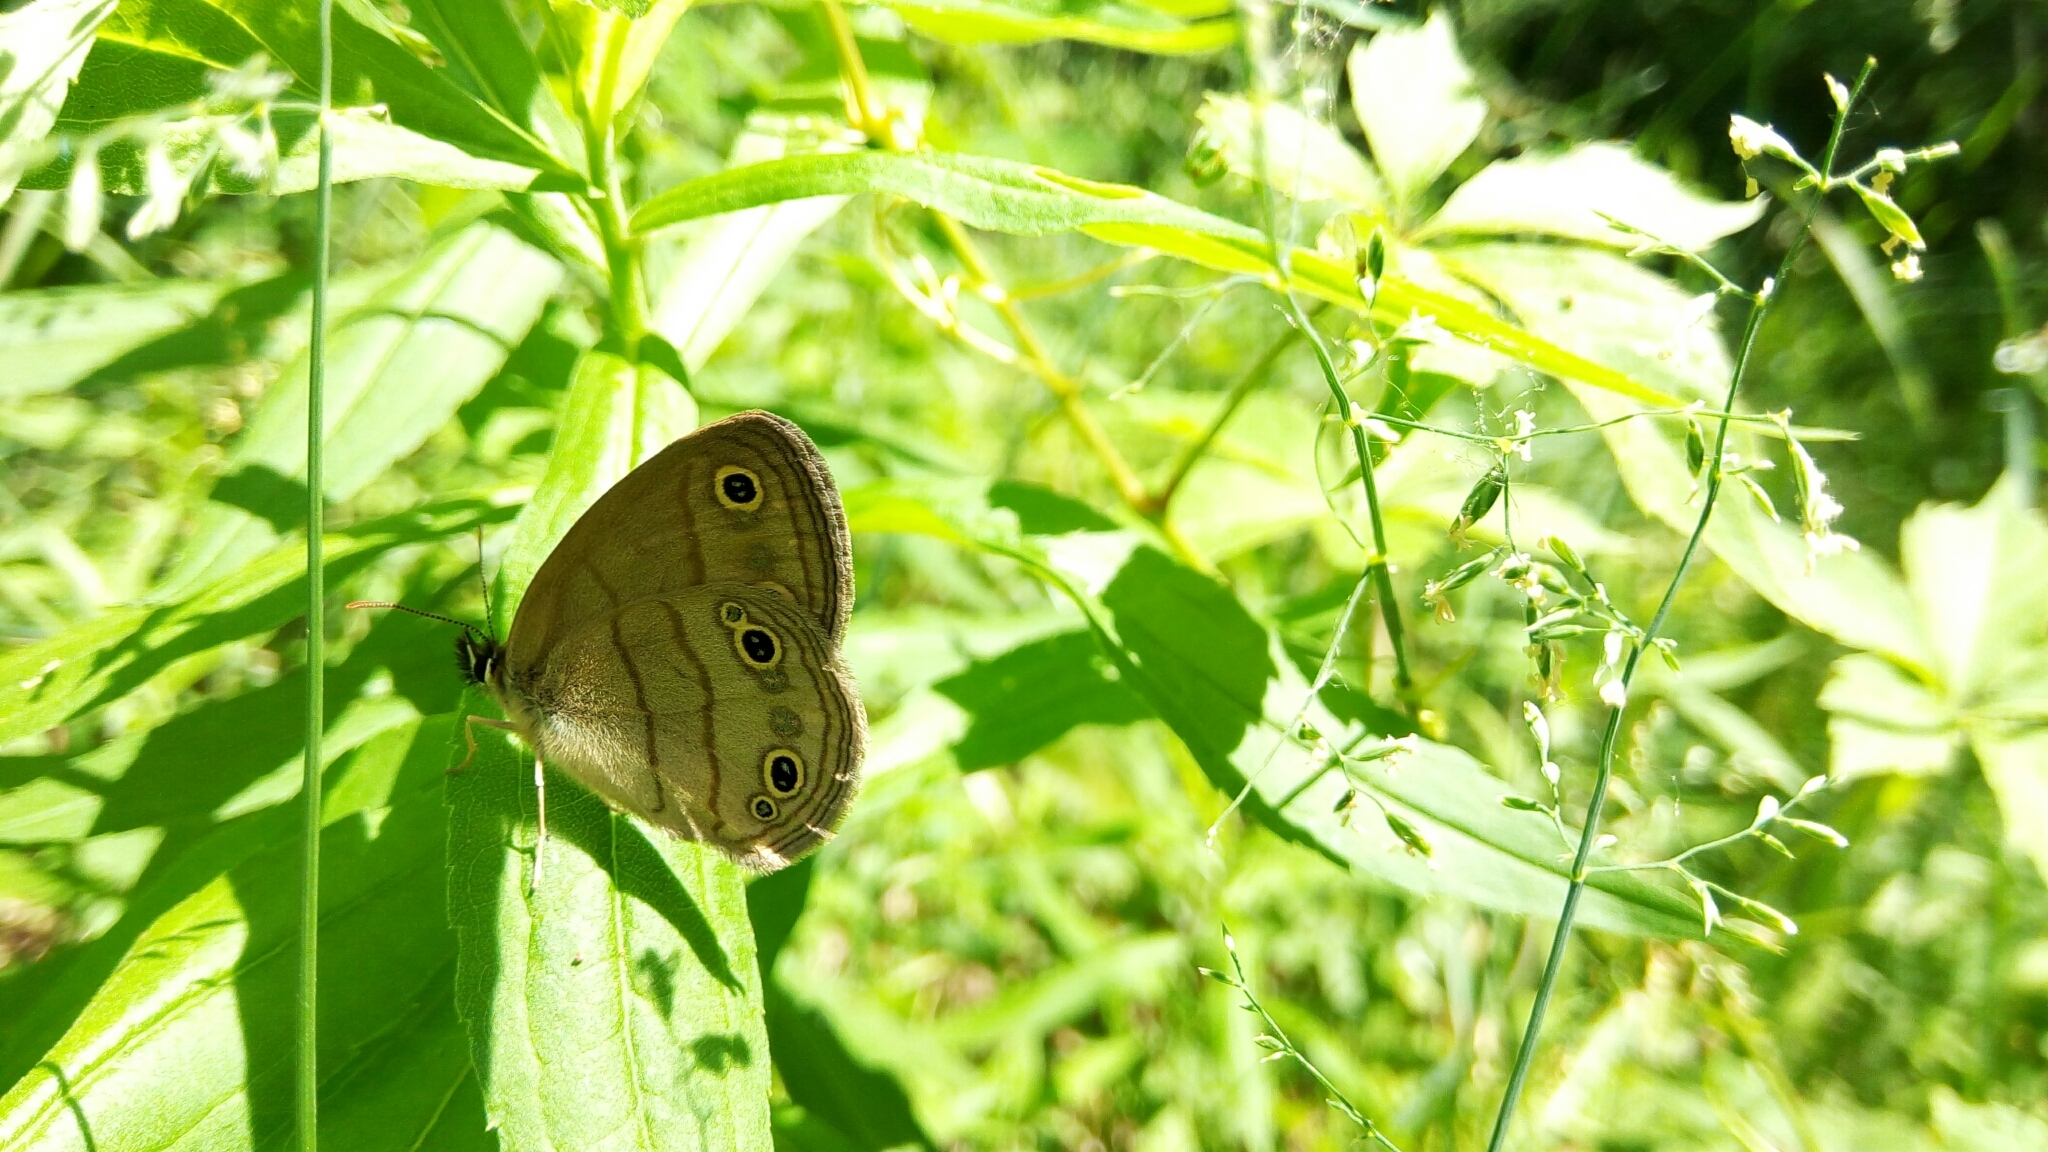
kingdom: Animalia
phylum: Arthropoda
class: Insecta
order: Lepidoptera
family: Nymphalidae
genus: Euptychia
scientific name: Euptychia cymela
